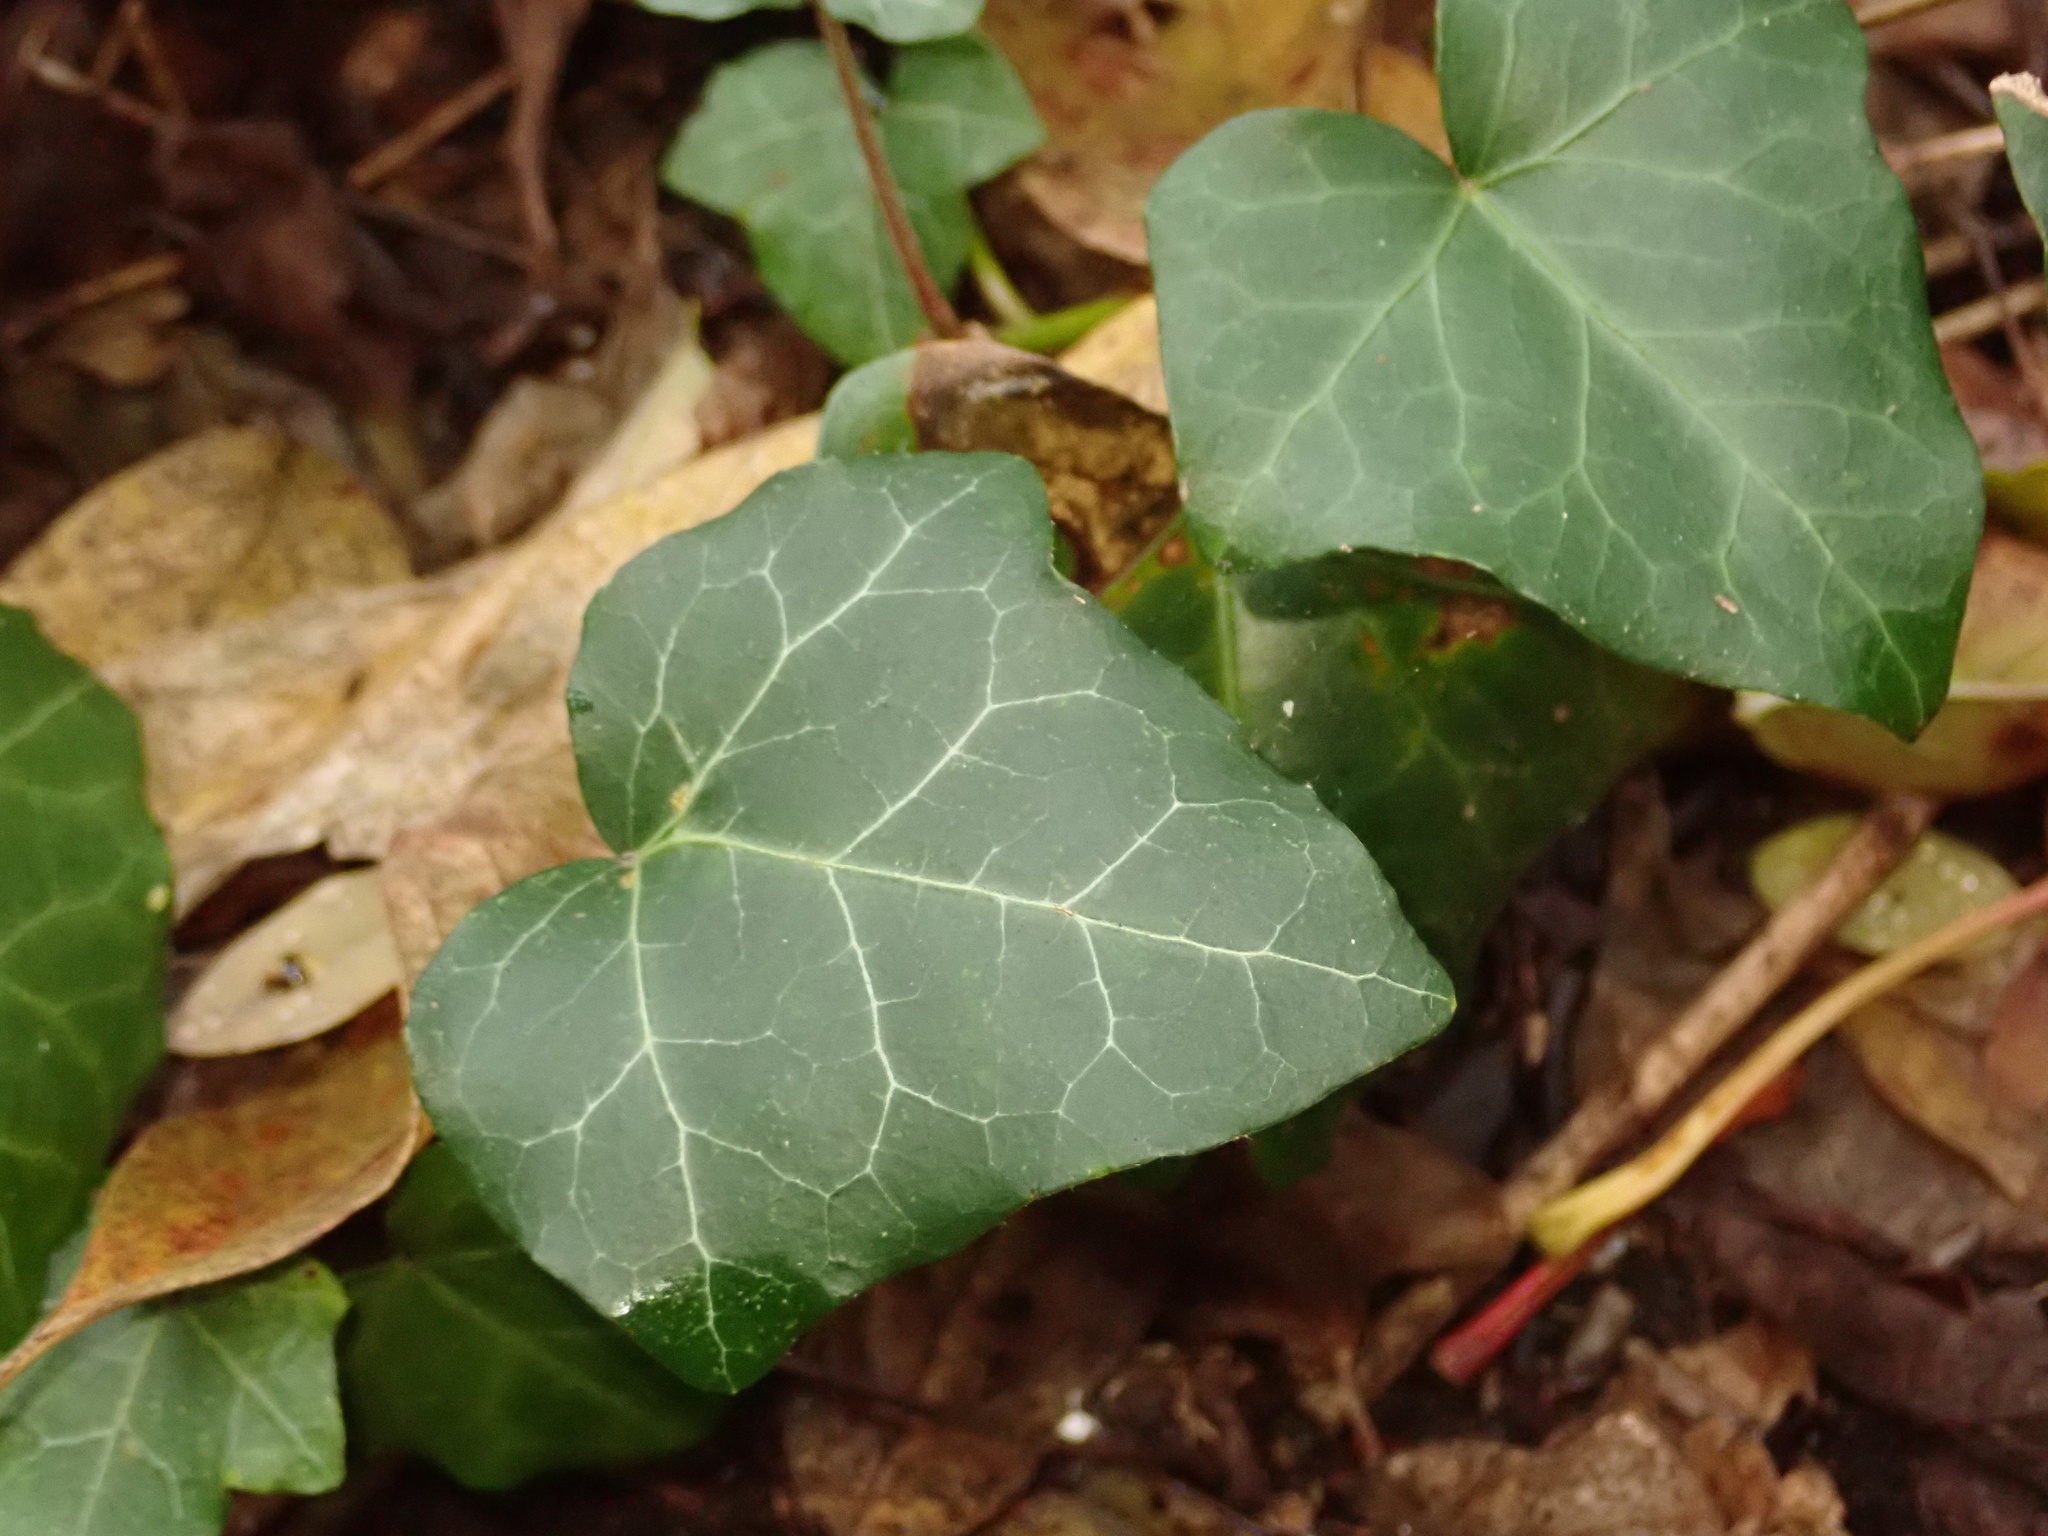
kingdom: Plantae
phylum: Tracheophyta
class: Magnoliopsida
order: Apiales
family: Araliaceae
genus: Hedera
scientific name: Hedera helix
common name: Ivy
